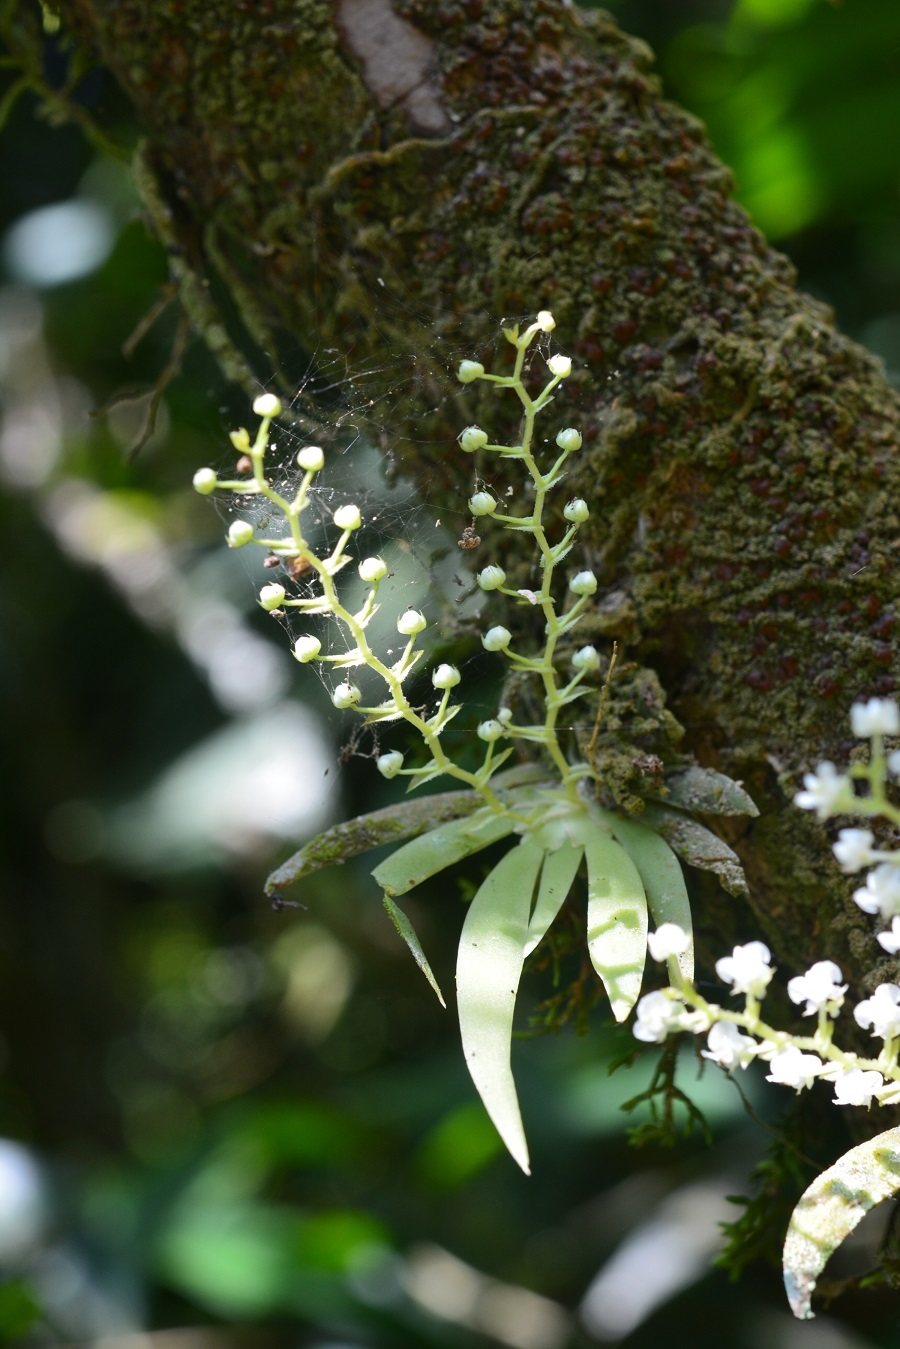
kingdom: Plantae
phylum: Tracheophyta
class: Liliopsida
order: Asparagales
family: Orchidaceae
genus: Ornithocephalus
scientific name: Ornithocephalus iridifolius
